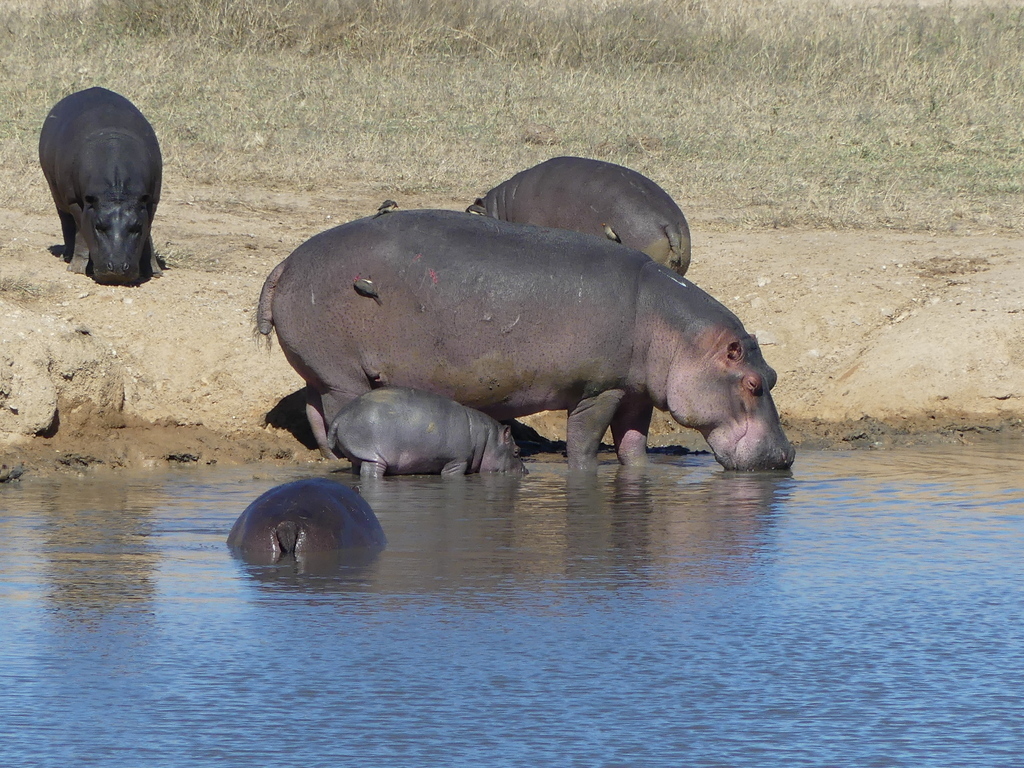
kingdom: Animalia
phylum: Chordata
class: Mammalia
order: Artiodactyla
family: Hippopotamidae
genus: Hippopotamus
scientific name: Hippopotamus amphibius
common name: Common hippopotamus
